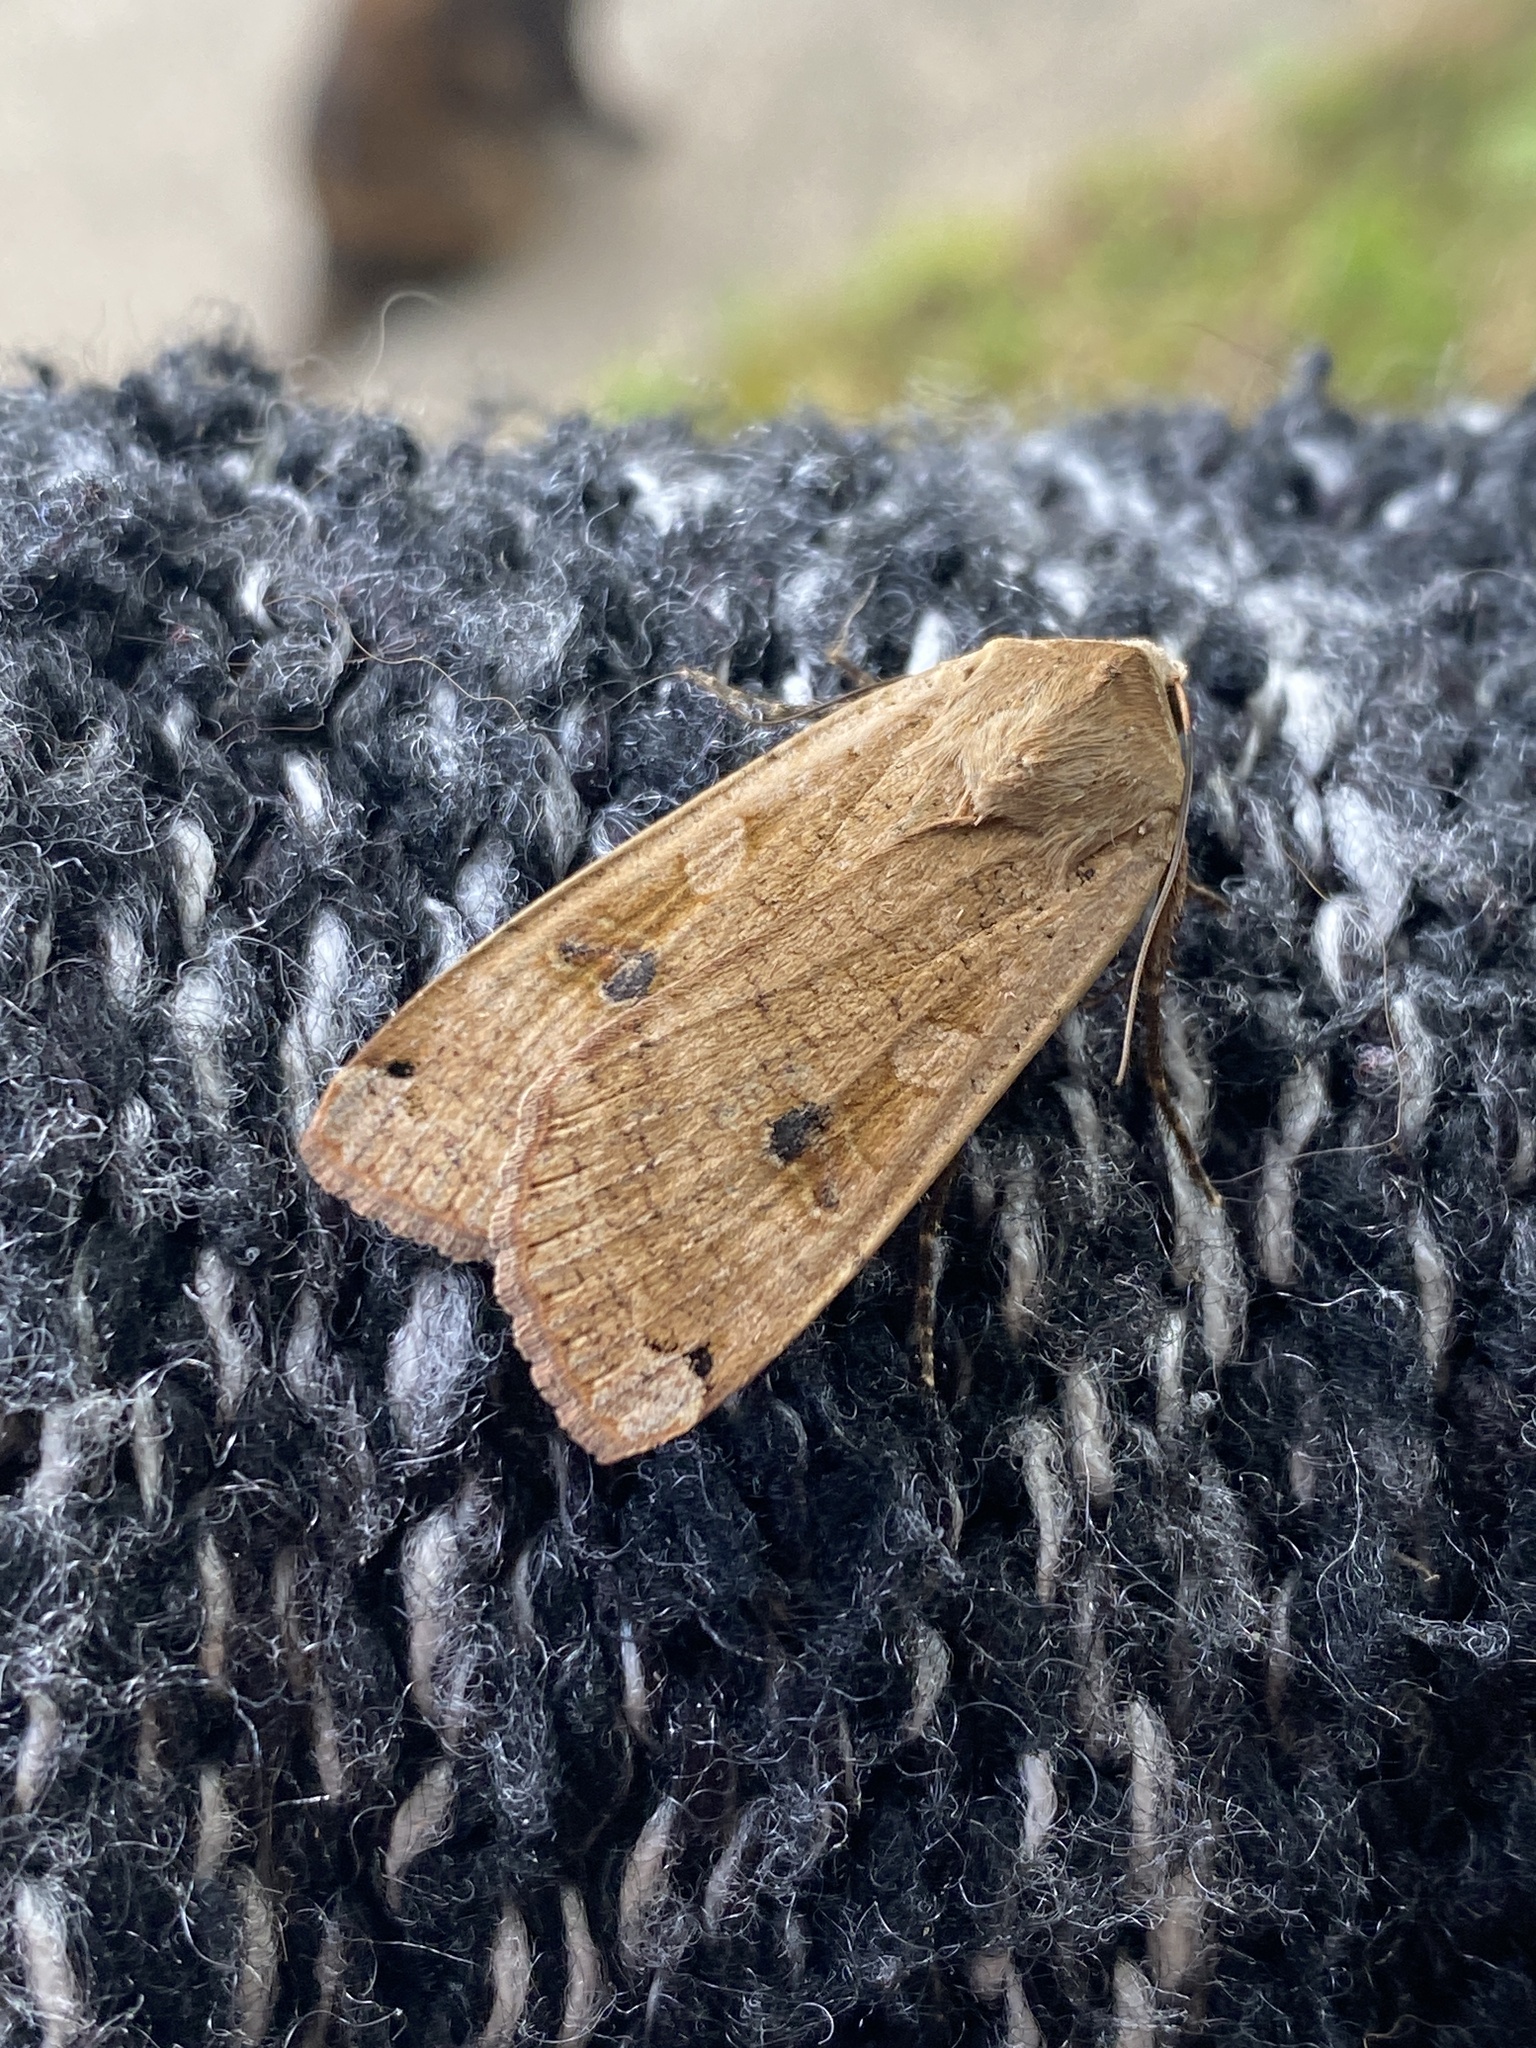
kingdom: Animalia
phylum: Arthropoda
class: Insecta
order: Lepidoptera
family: Noctuidae
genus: Noctua
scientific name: Noctua pronuba
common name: Large yellow underwing
